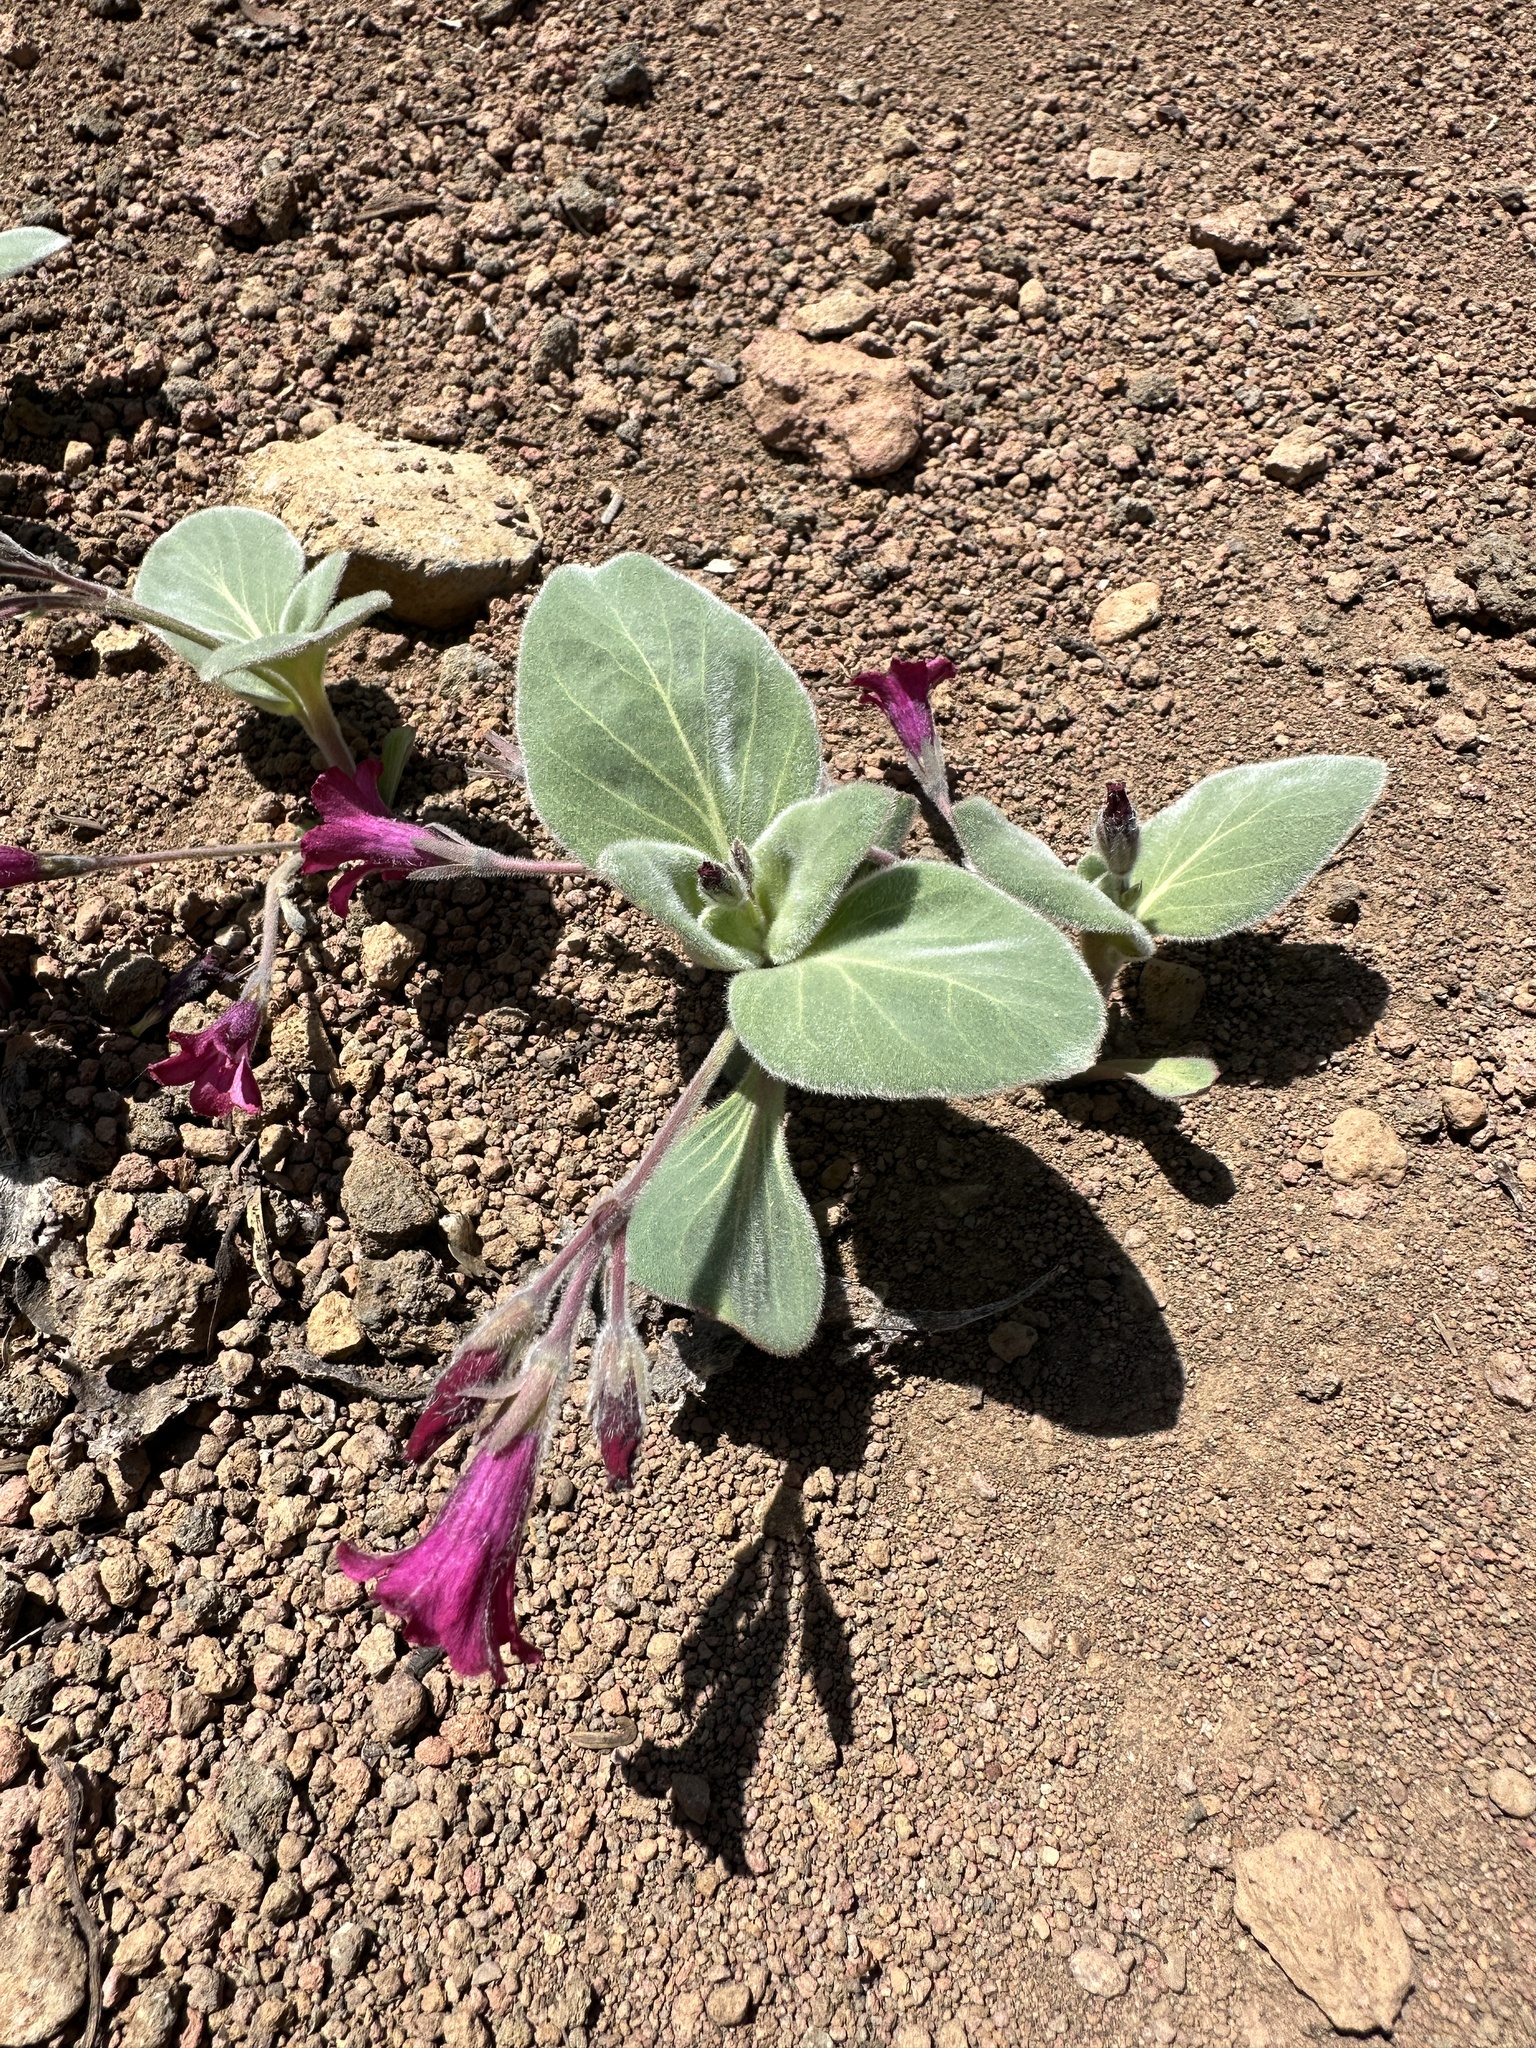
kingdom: Plantae
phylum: Tracheophyta
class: Magnoliopsida
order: Gentianales
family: Apocynaceae
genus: Cycladenia
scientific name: Cycladenia humilis
